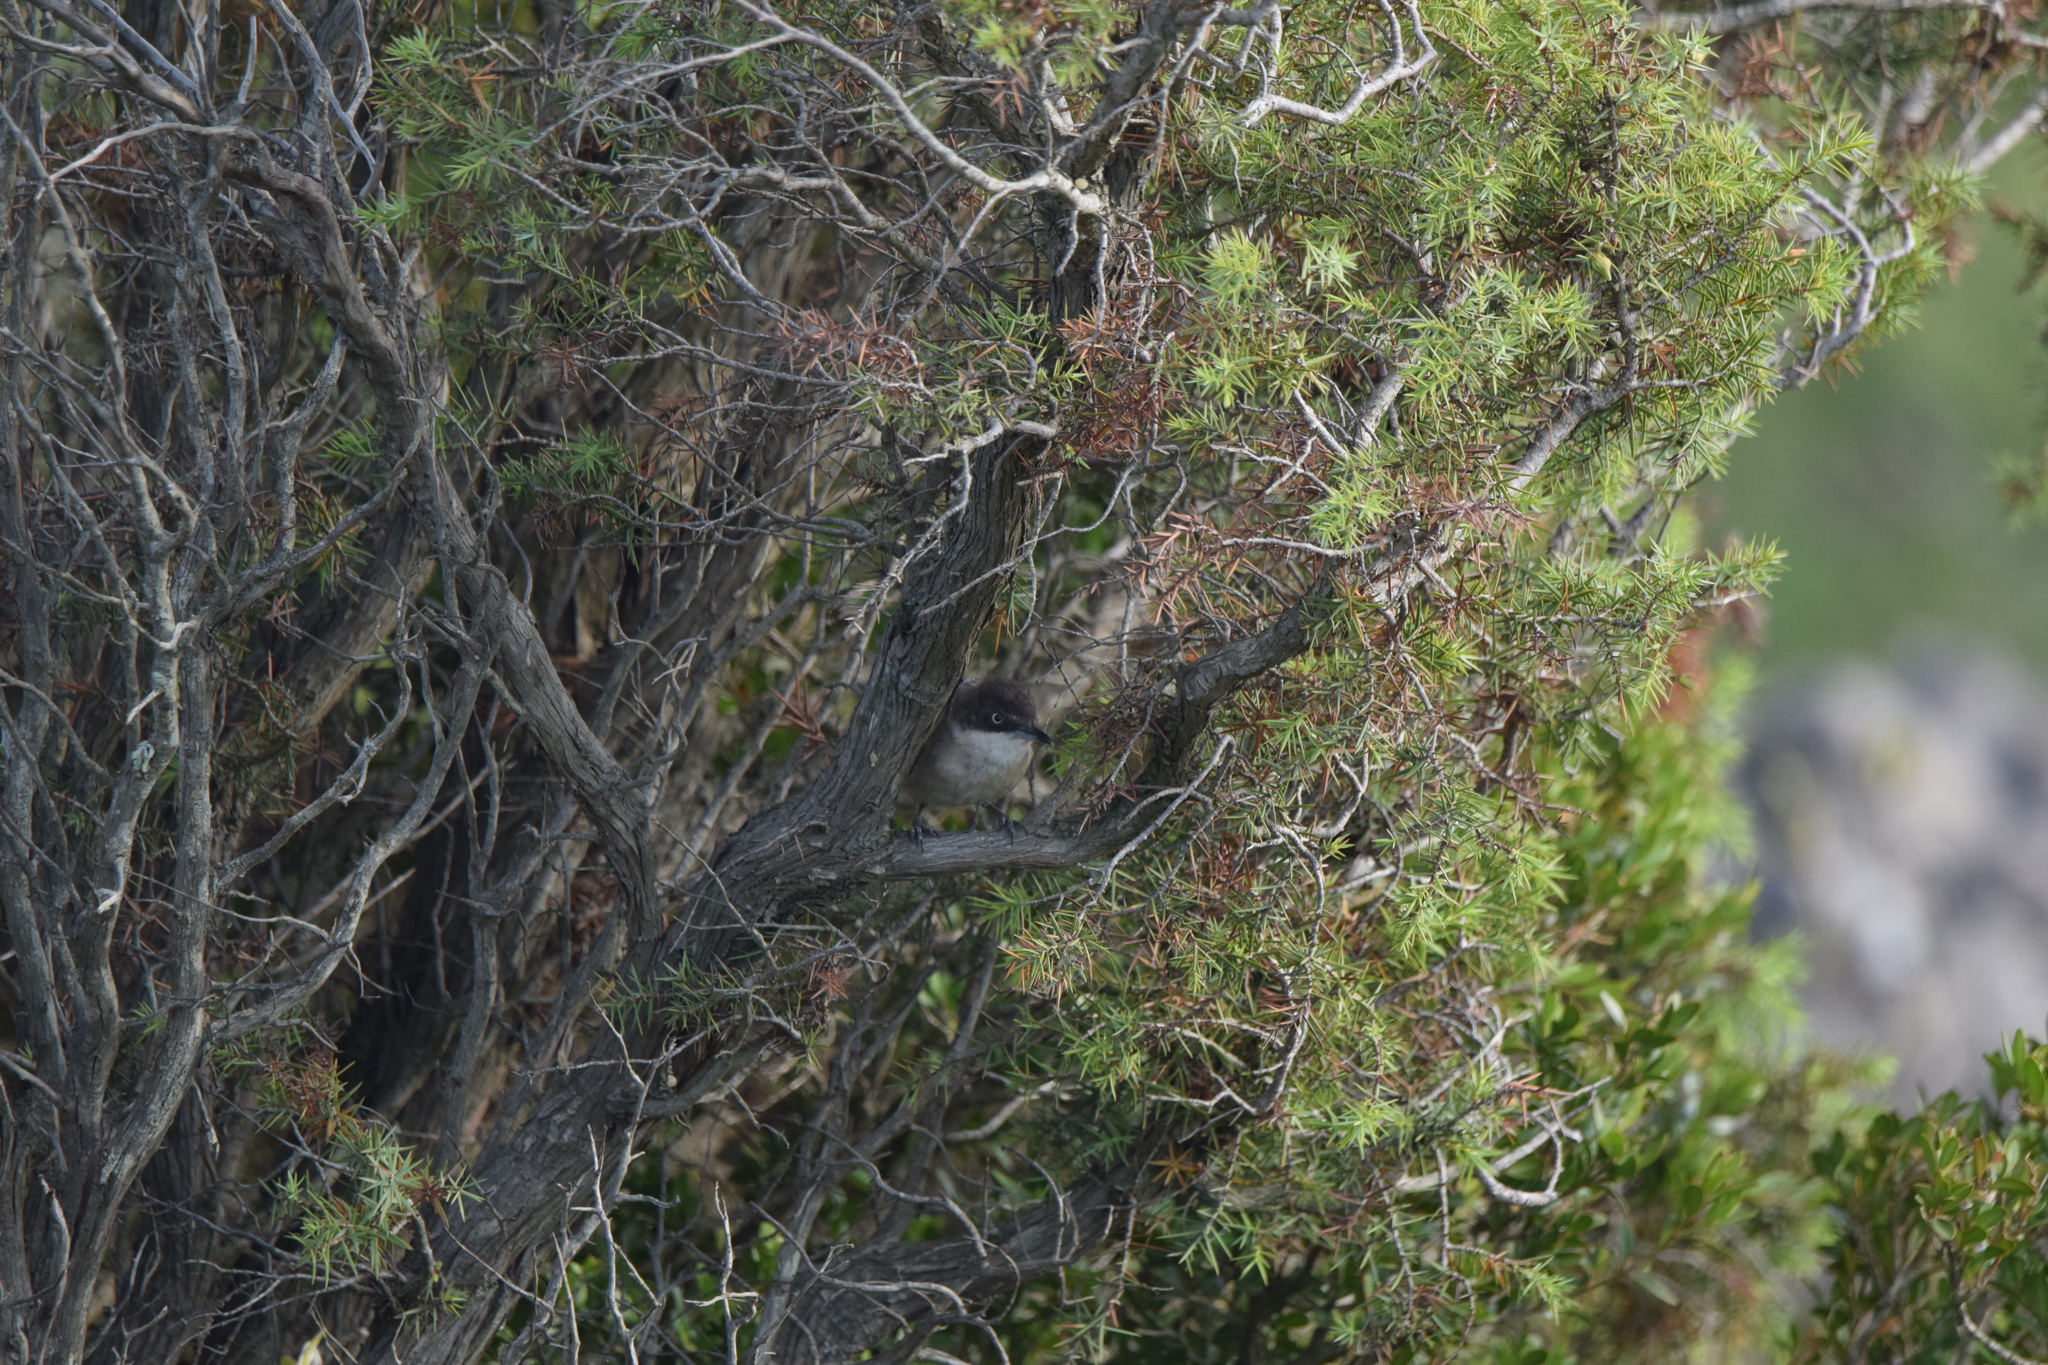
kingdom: Animalia
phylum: Chordata
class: Aves
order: Passeriformes
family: Sylviidae
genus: Sylvia
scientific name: Sylvia hortensis
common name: Orphean warbler
